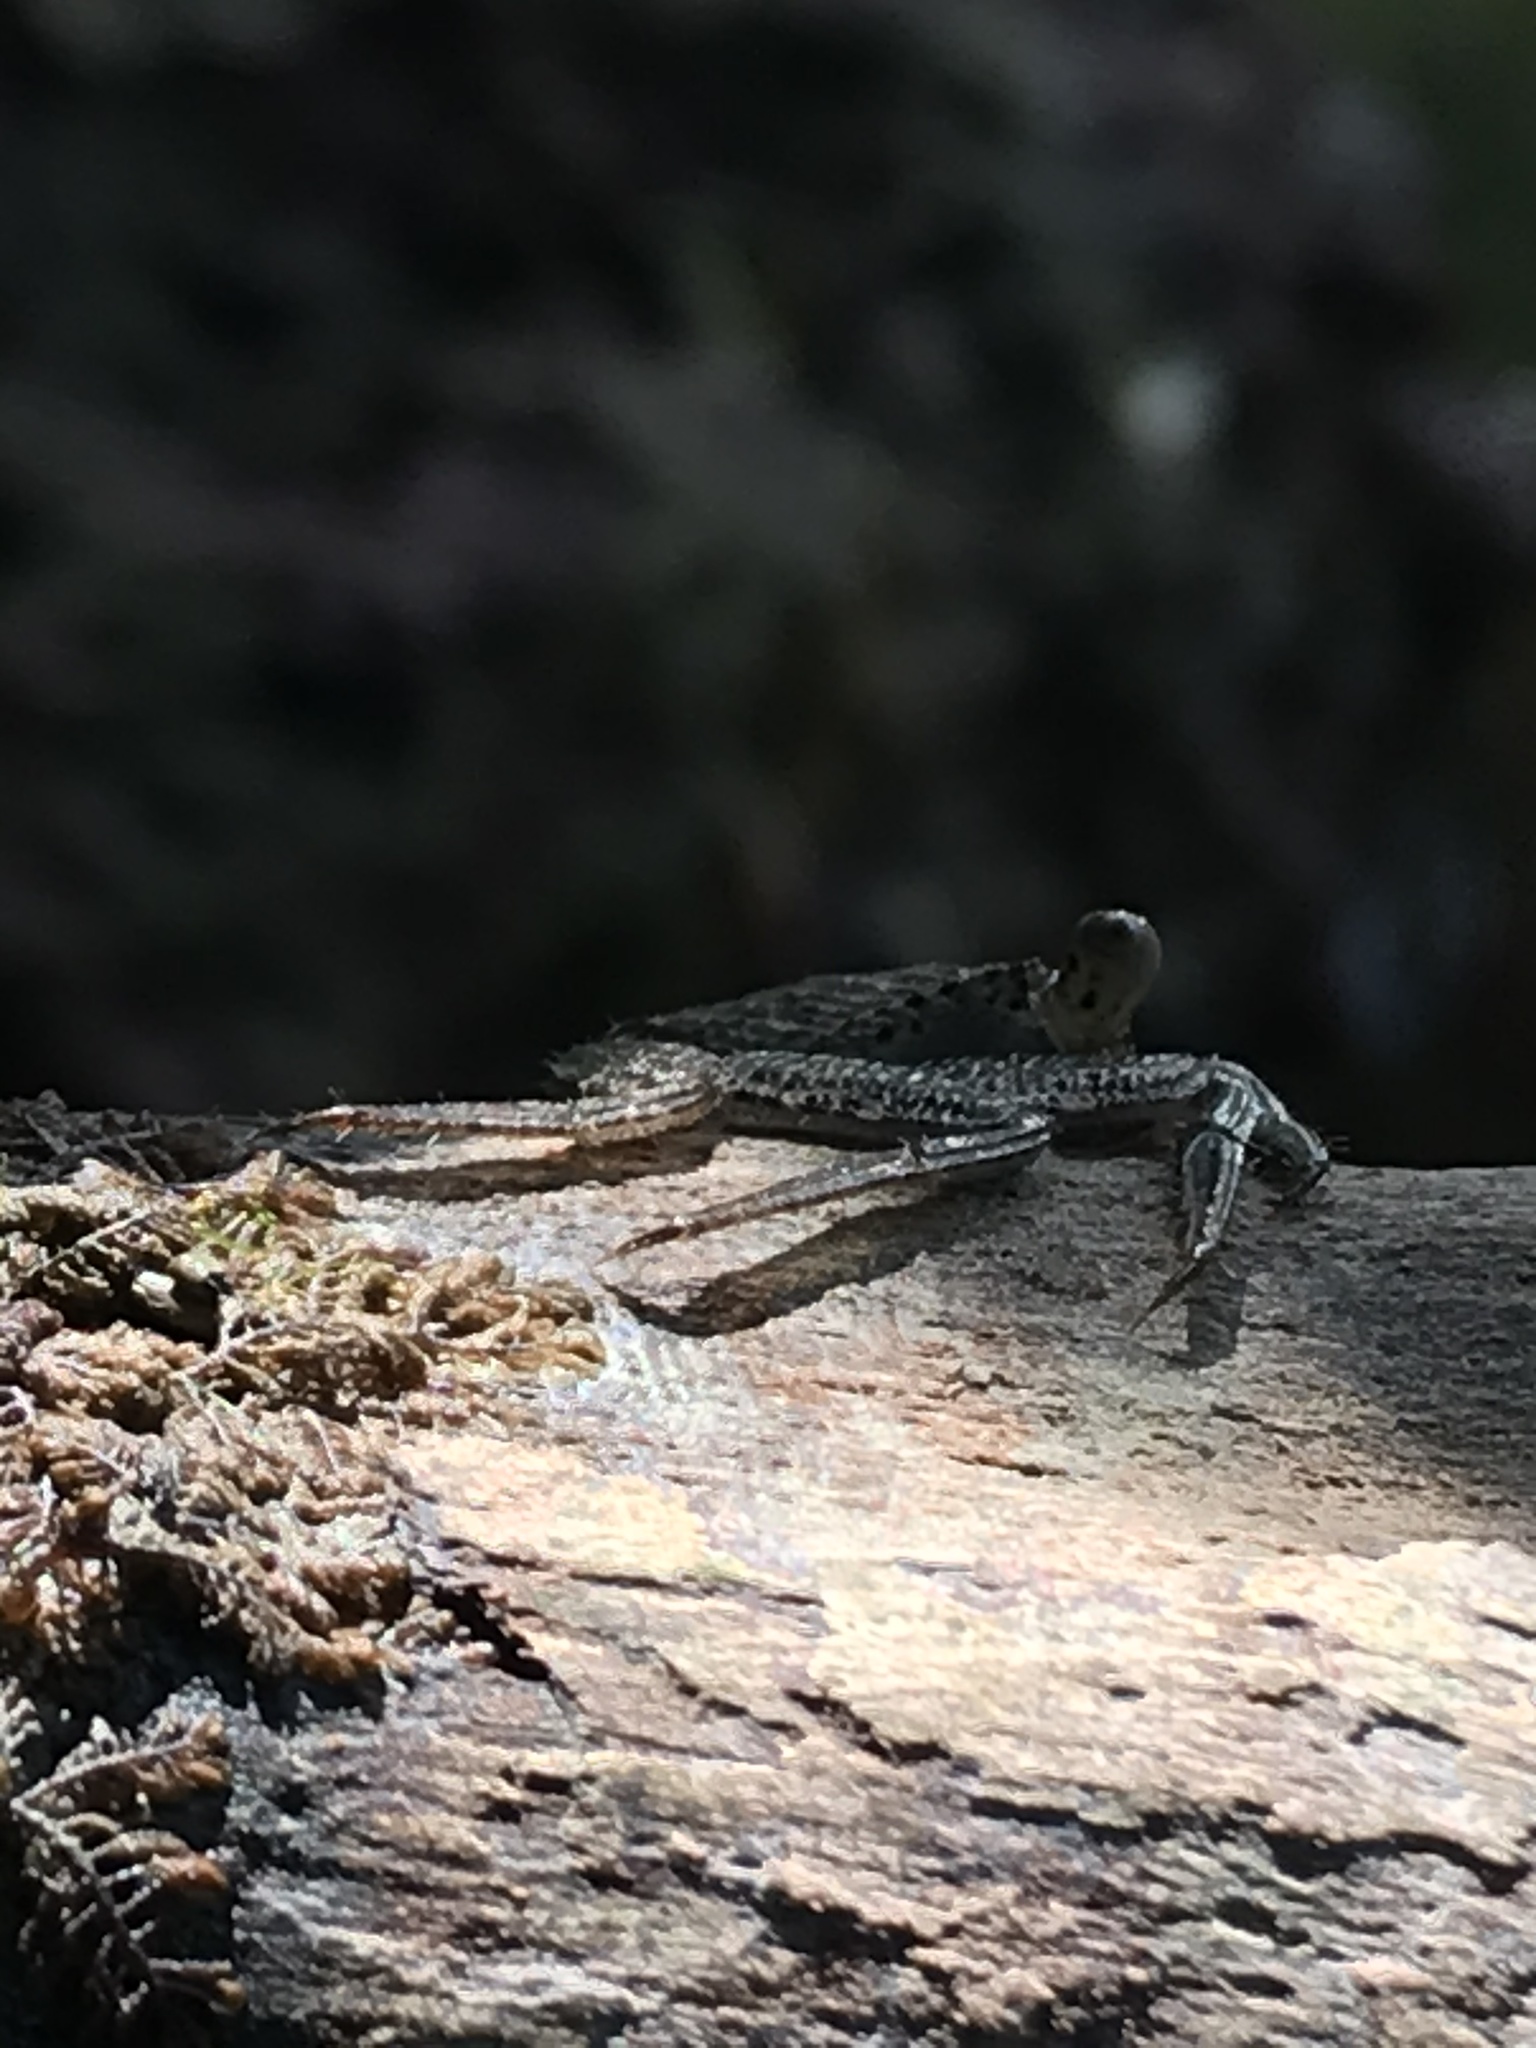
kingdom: Animalia
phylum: Arthropoda
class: Malacostraca
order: Decapoda
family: Sesarmidae
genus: Aratus
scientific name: Aratus pisonii
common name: Mangrove crab
